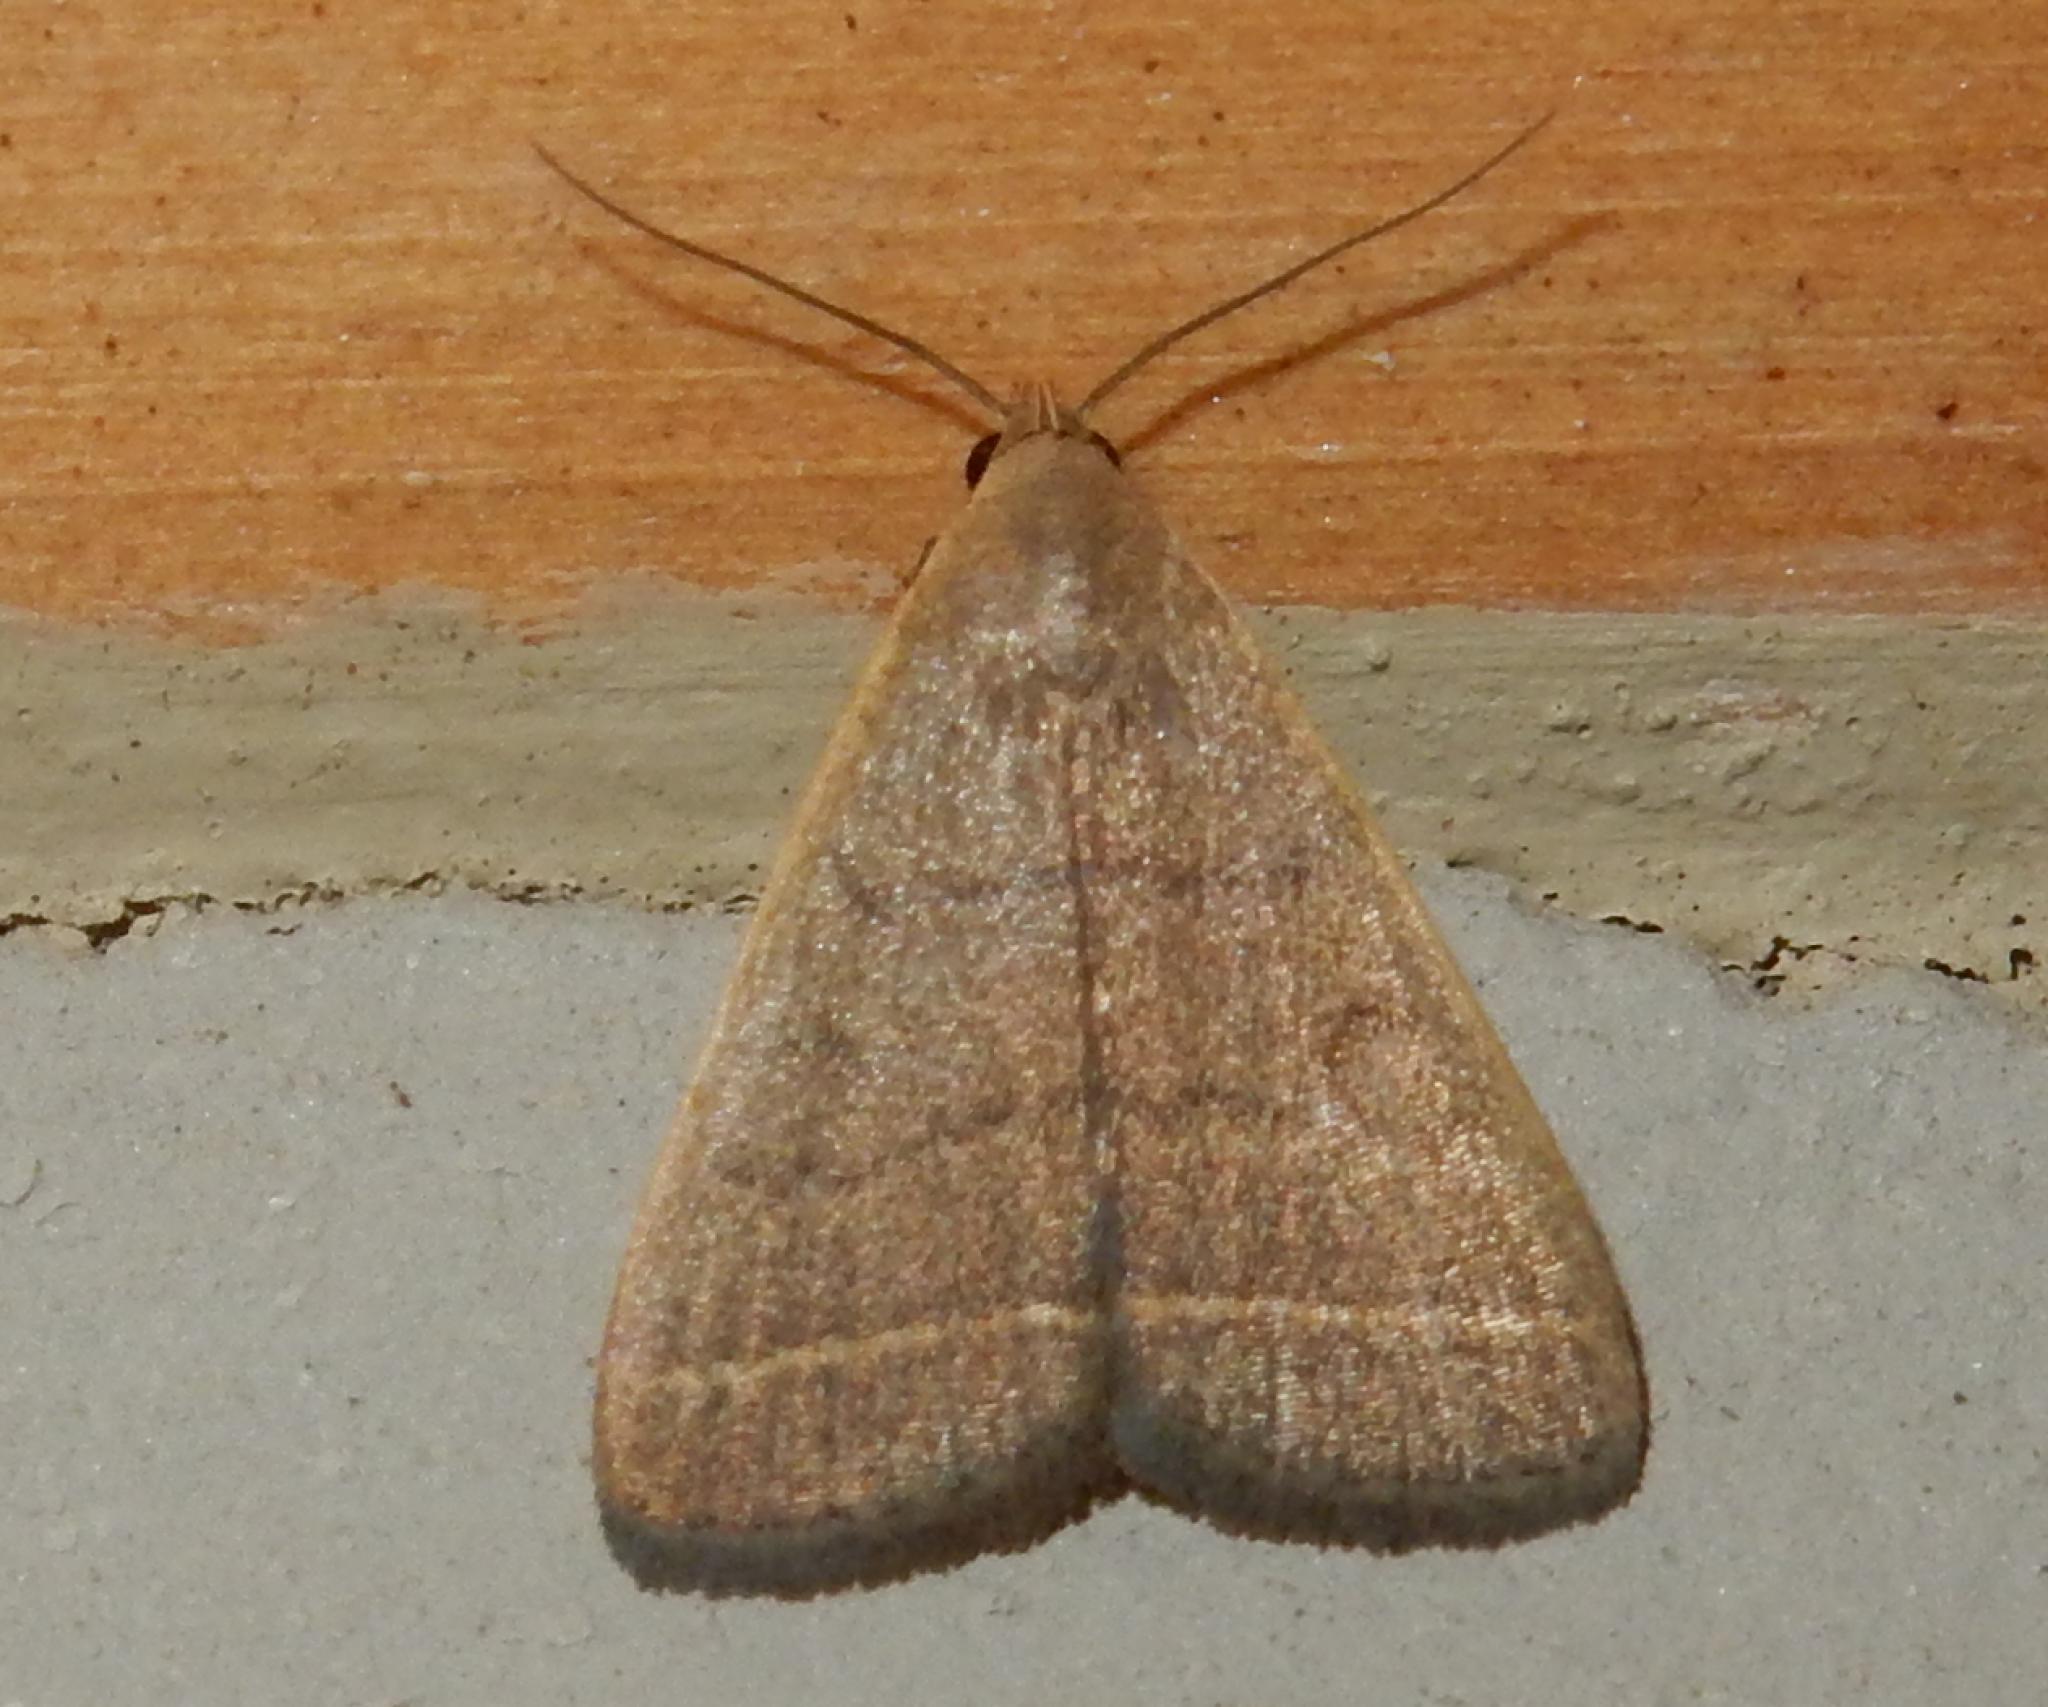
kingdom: Animalia
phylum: Arthropoda
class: Insecta
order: Lepidoptera
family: Erebidae
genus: Simplicia
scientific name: Simplicia extinctalis
